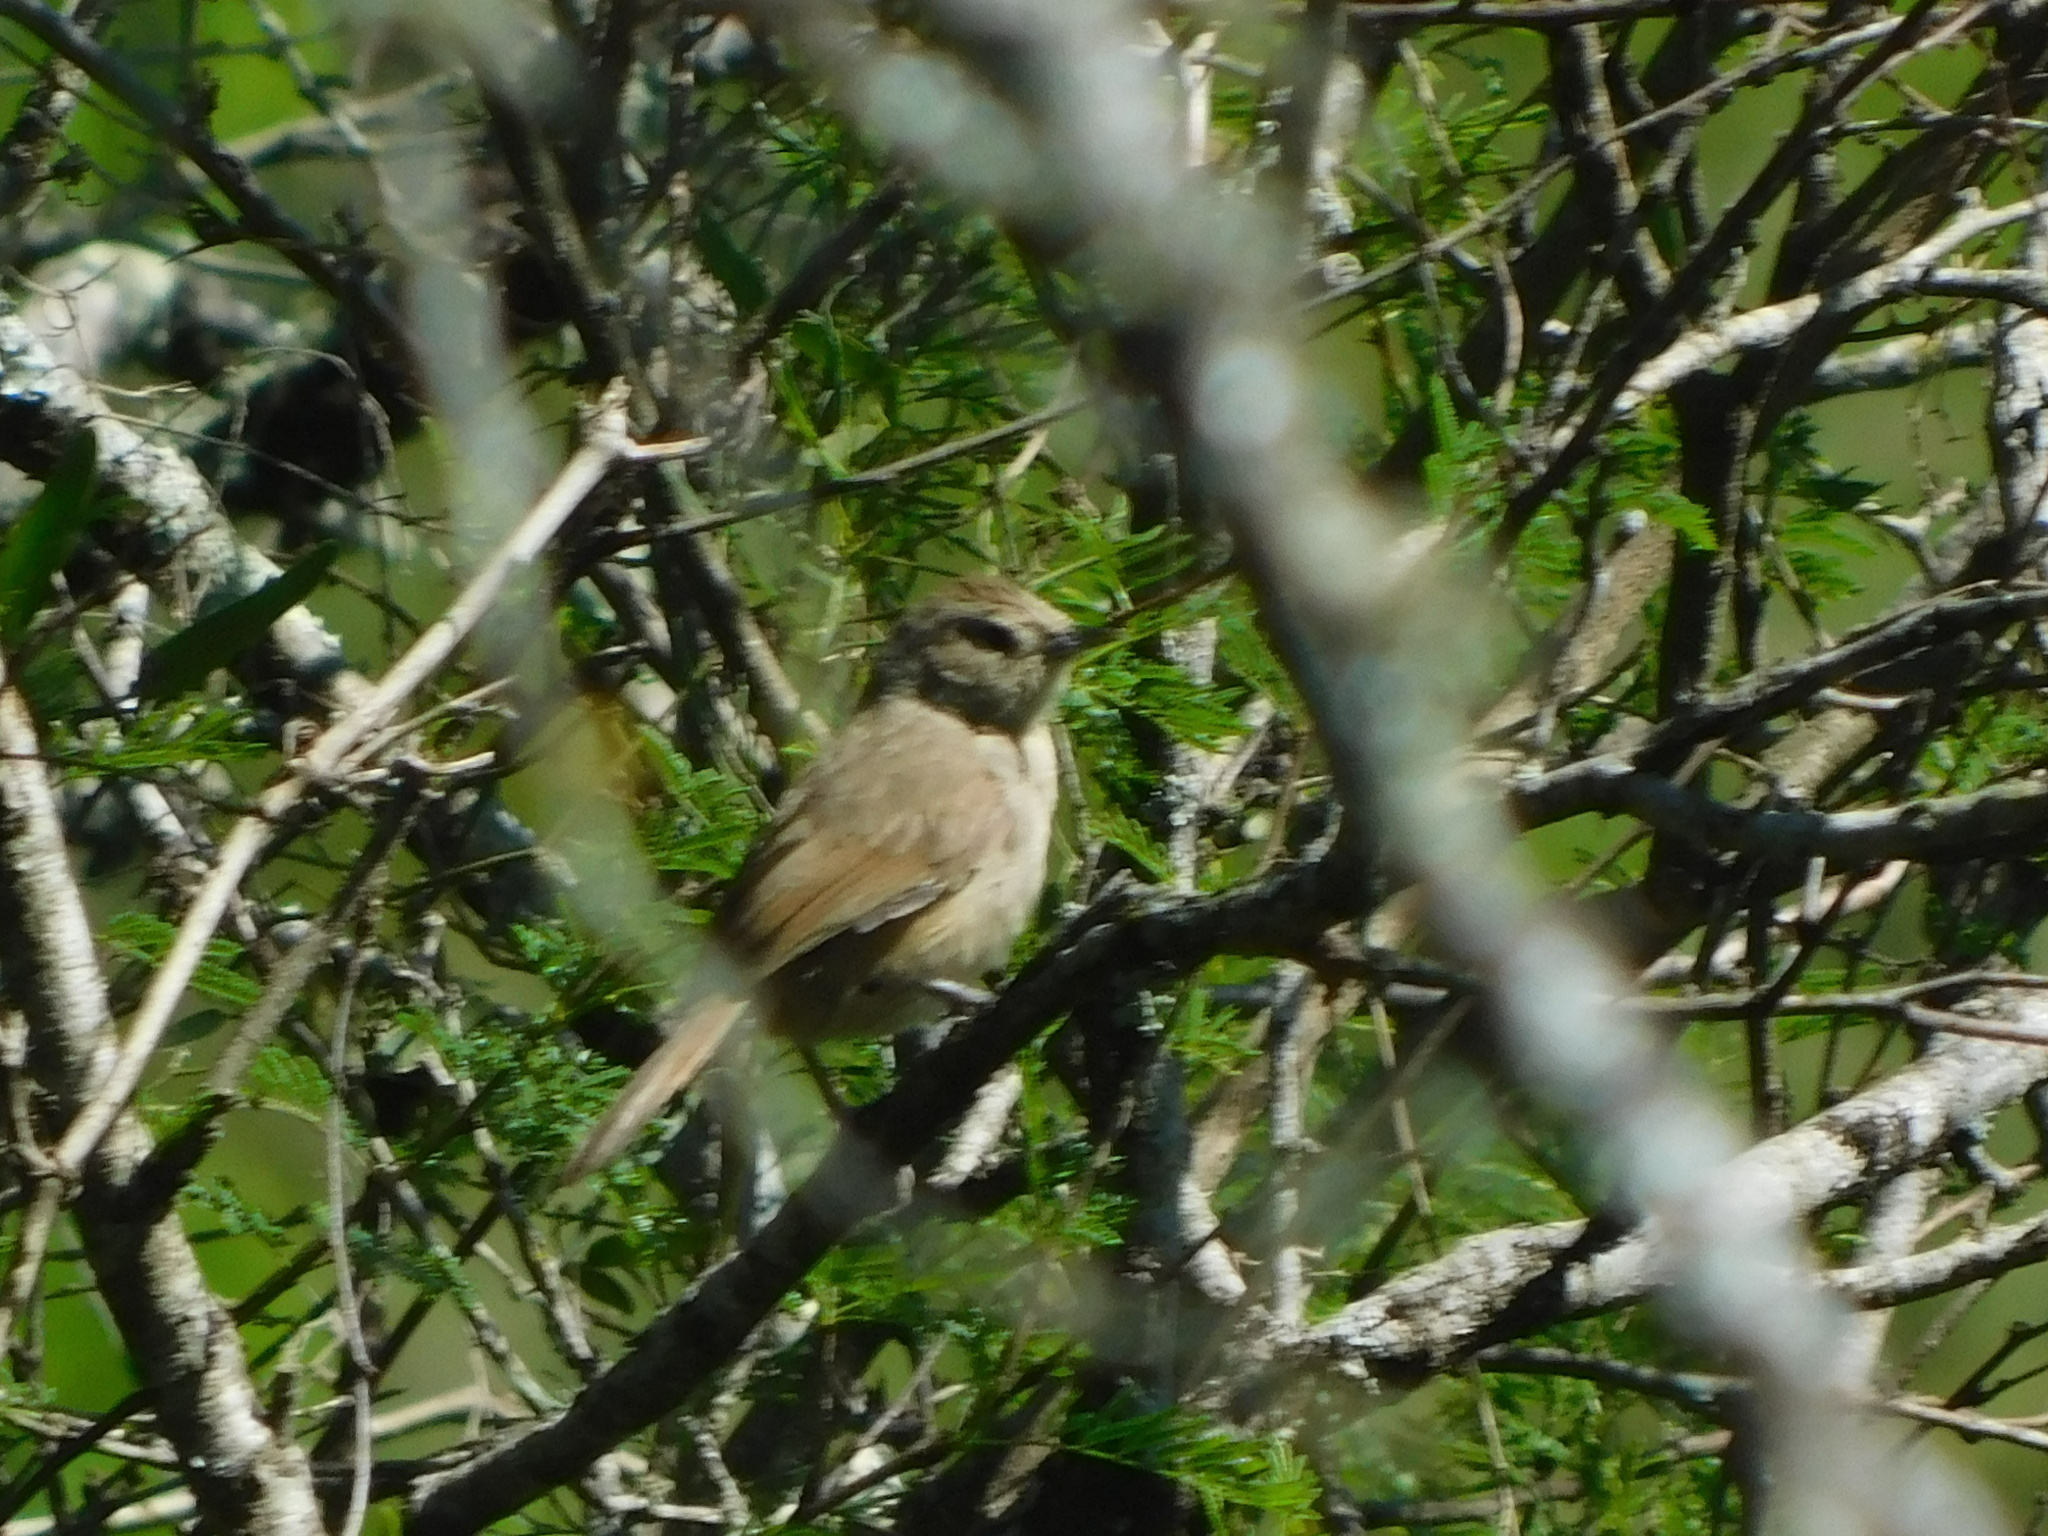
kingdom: Animalia
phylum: Chordata
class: Aves
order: Passeriformes
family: Furnariidae
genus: Phacellodomus
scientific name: Phacellodomus sibilatrix
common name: Little thornbird
